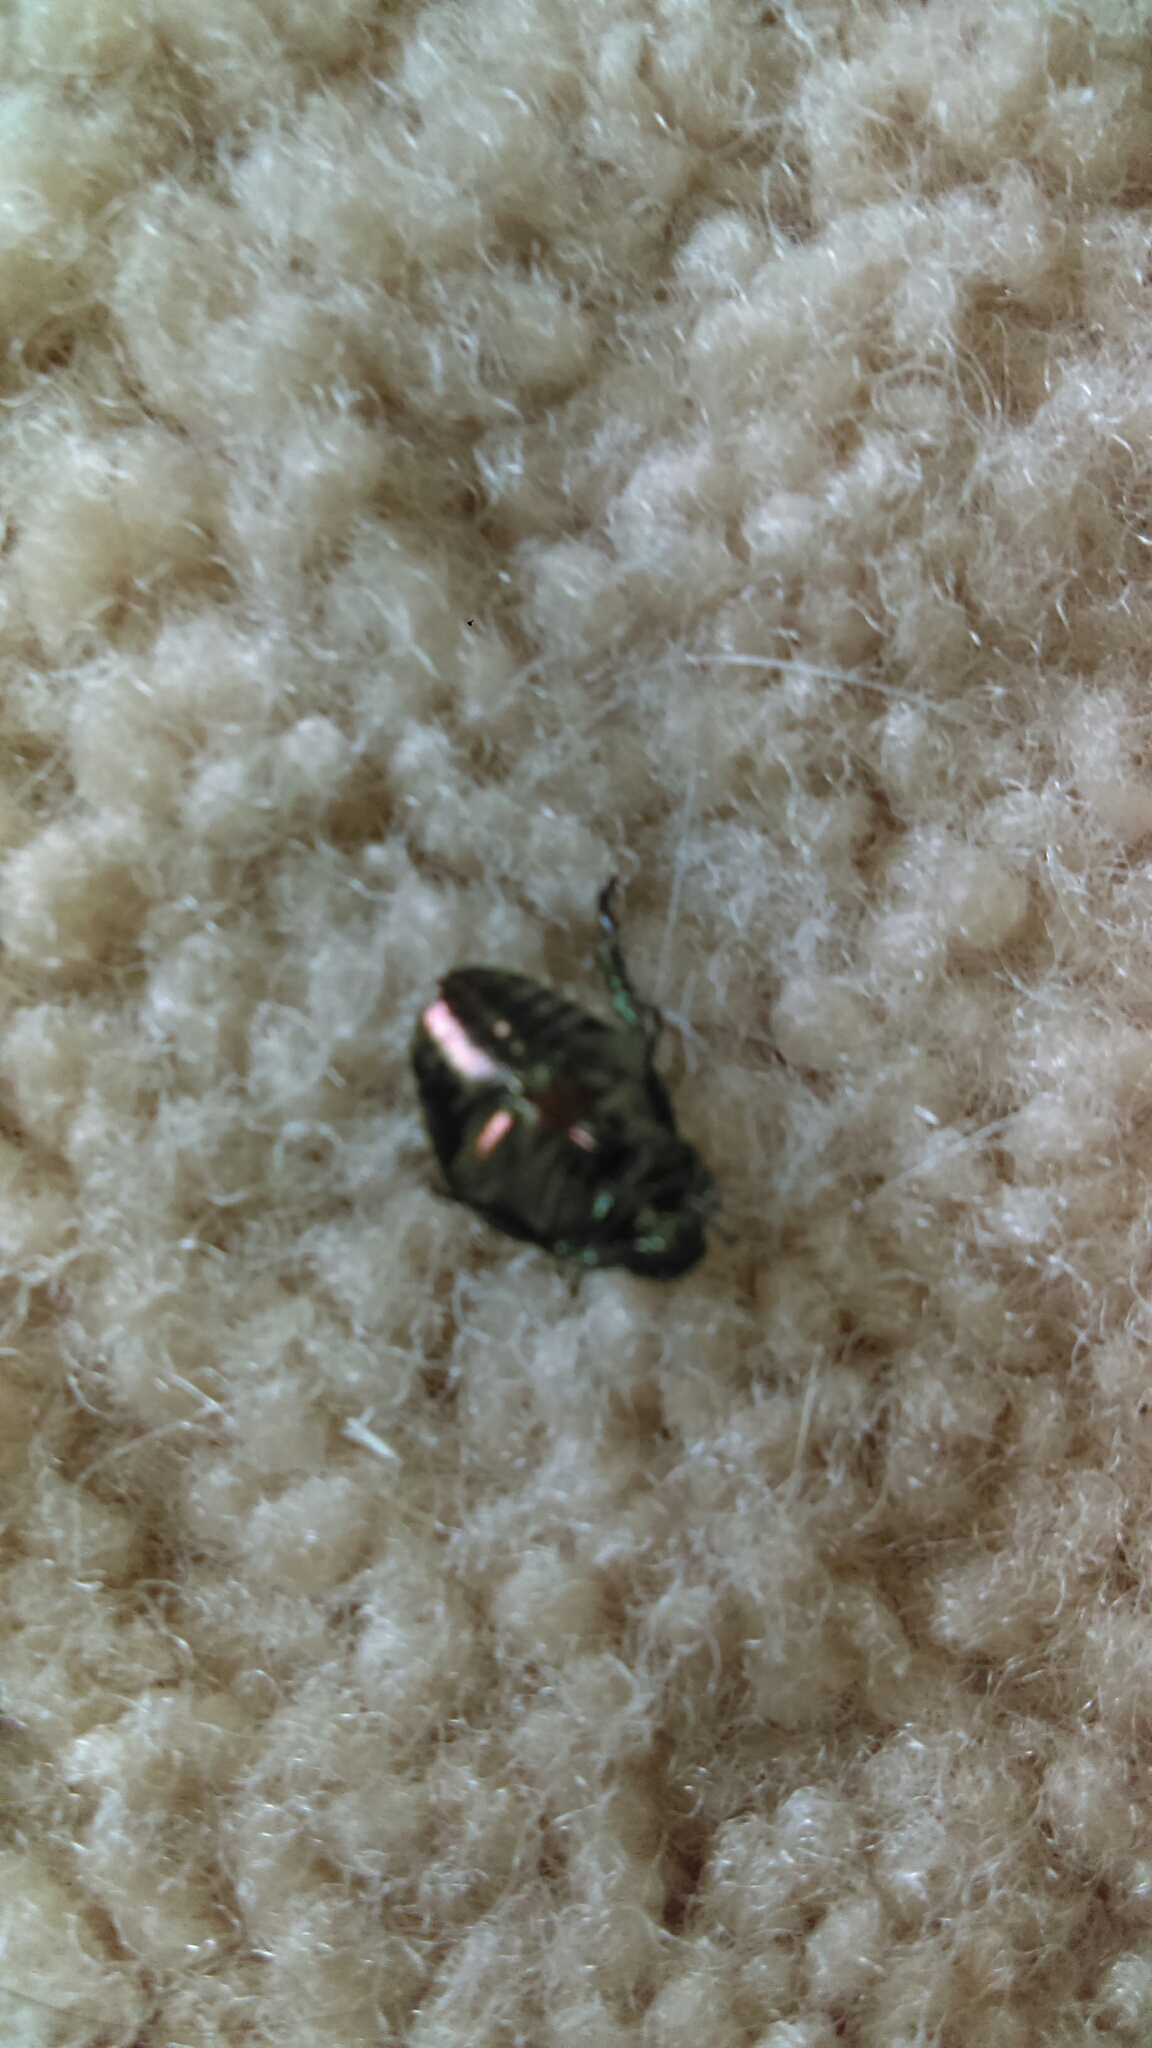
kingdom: Animalia
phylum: Arthropoda
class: Insecta
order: Coleoptera
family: Scarabaeidae
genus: Popillia
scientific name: Popillia japonica
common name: Japanese beetle
